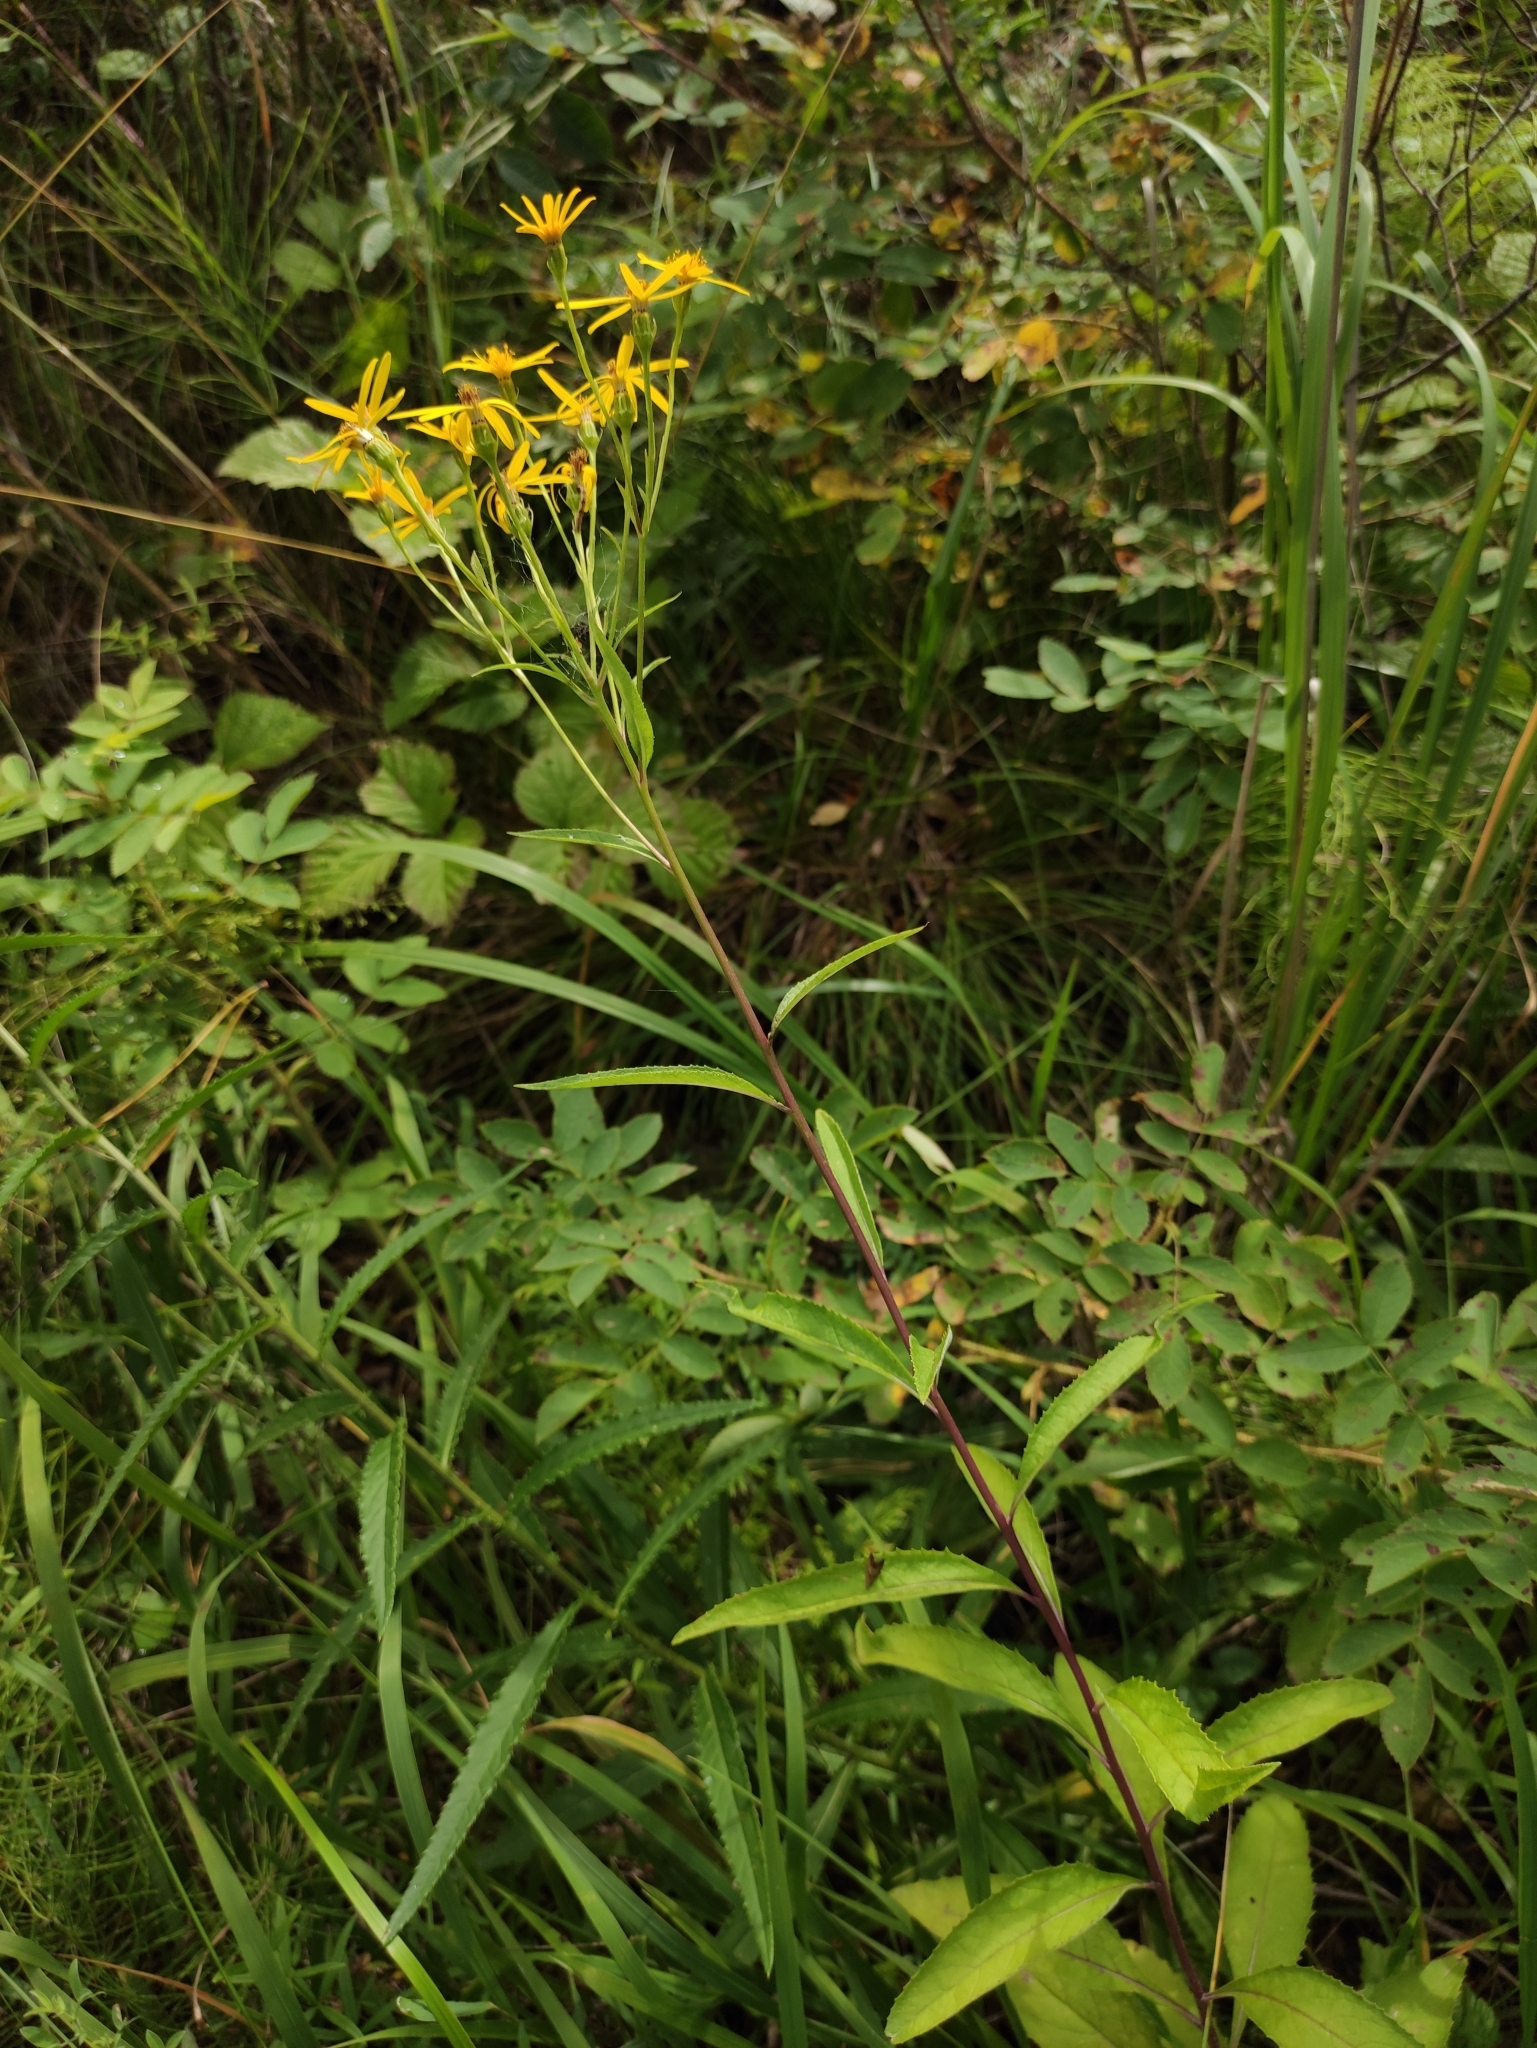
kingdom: Plantae
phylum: Tracheophyta
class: Magnoliopsida
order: Asterales
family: Asteraceae
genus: Senecio
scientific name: Senecio nemorensis
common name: Alpine ragwort
